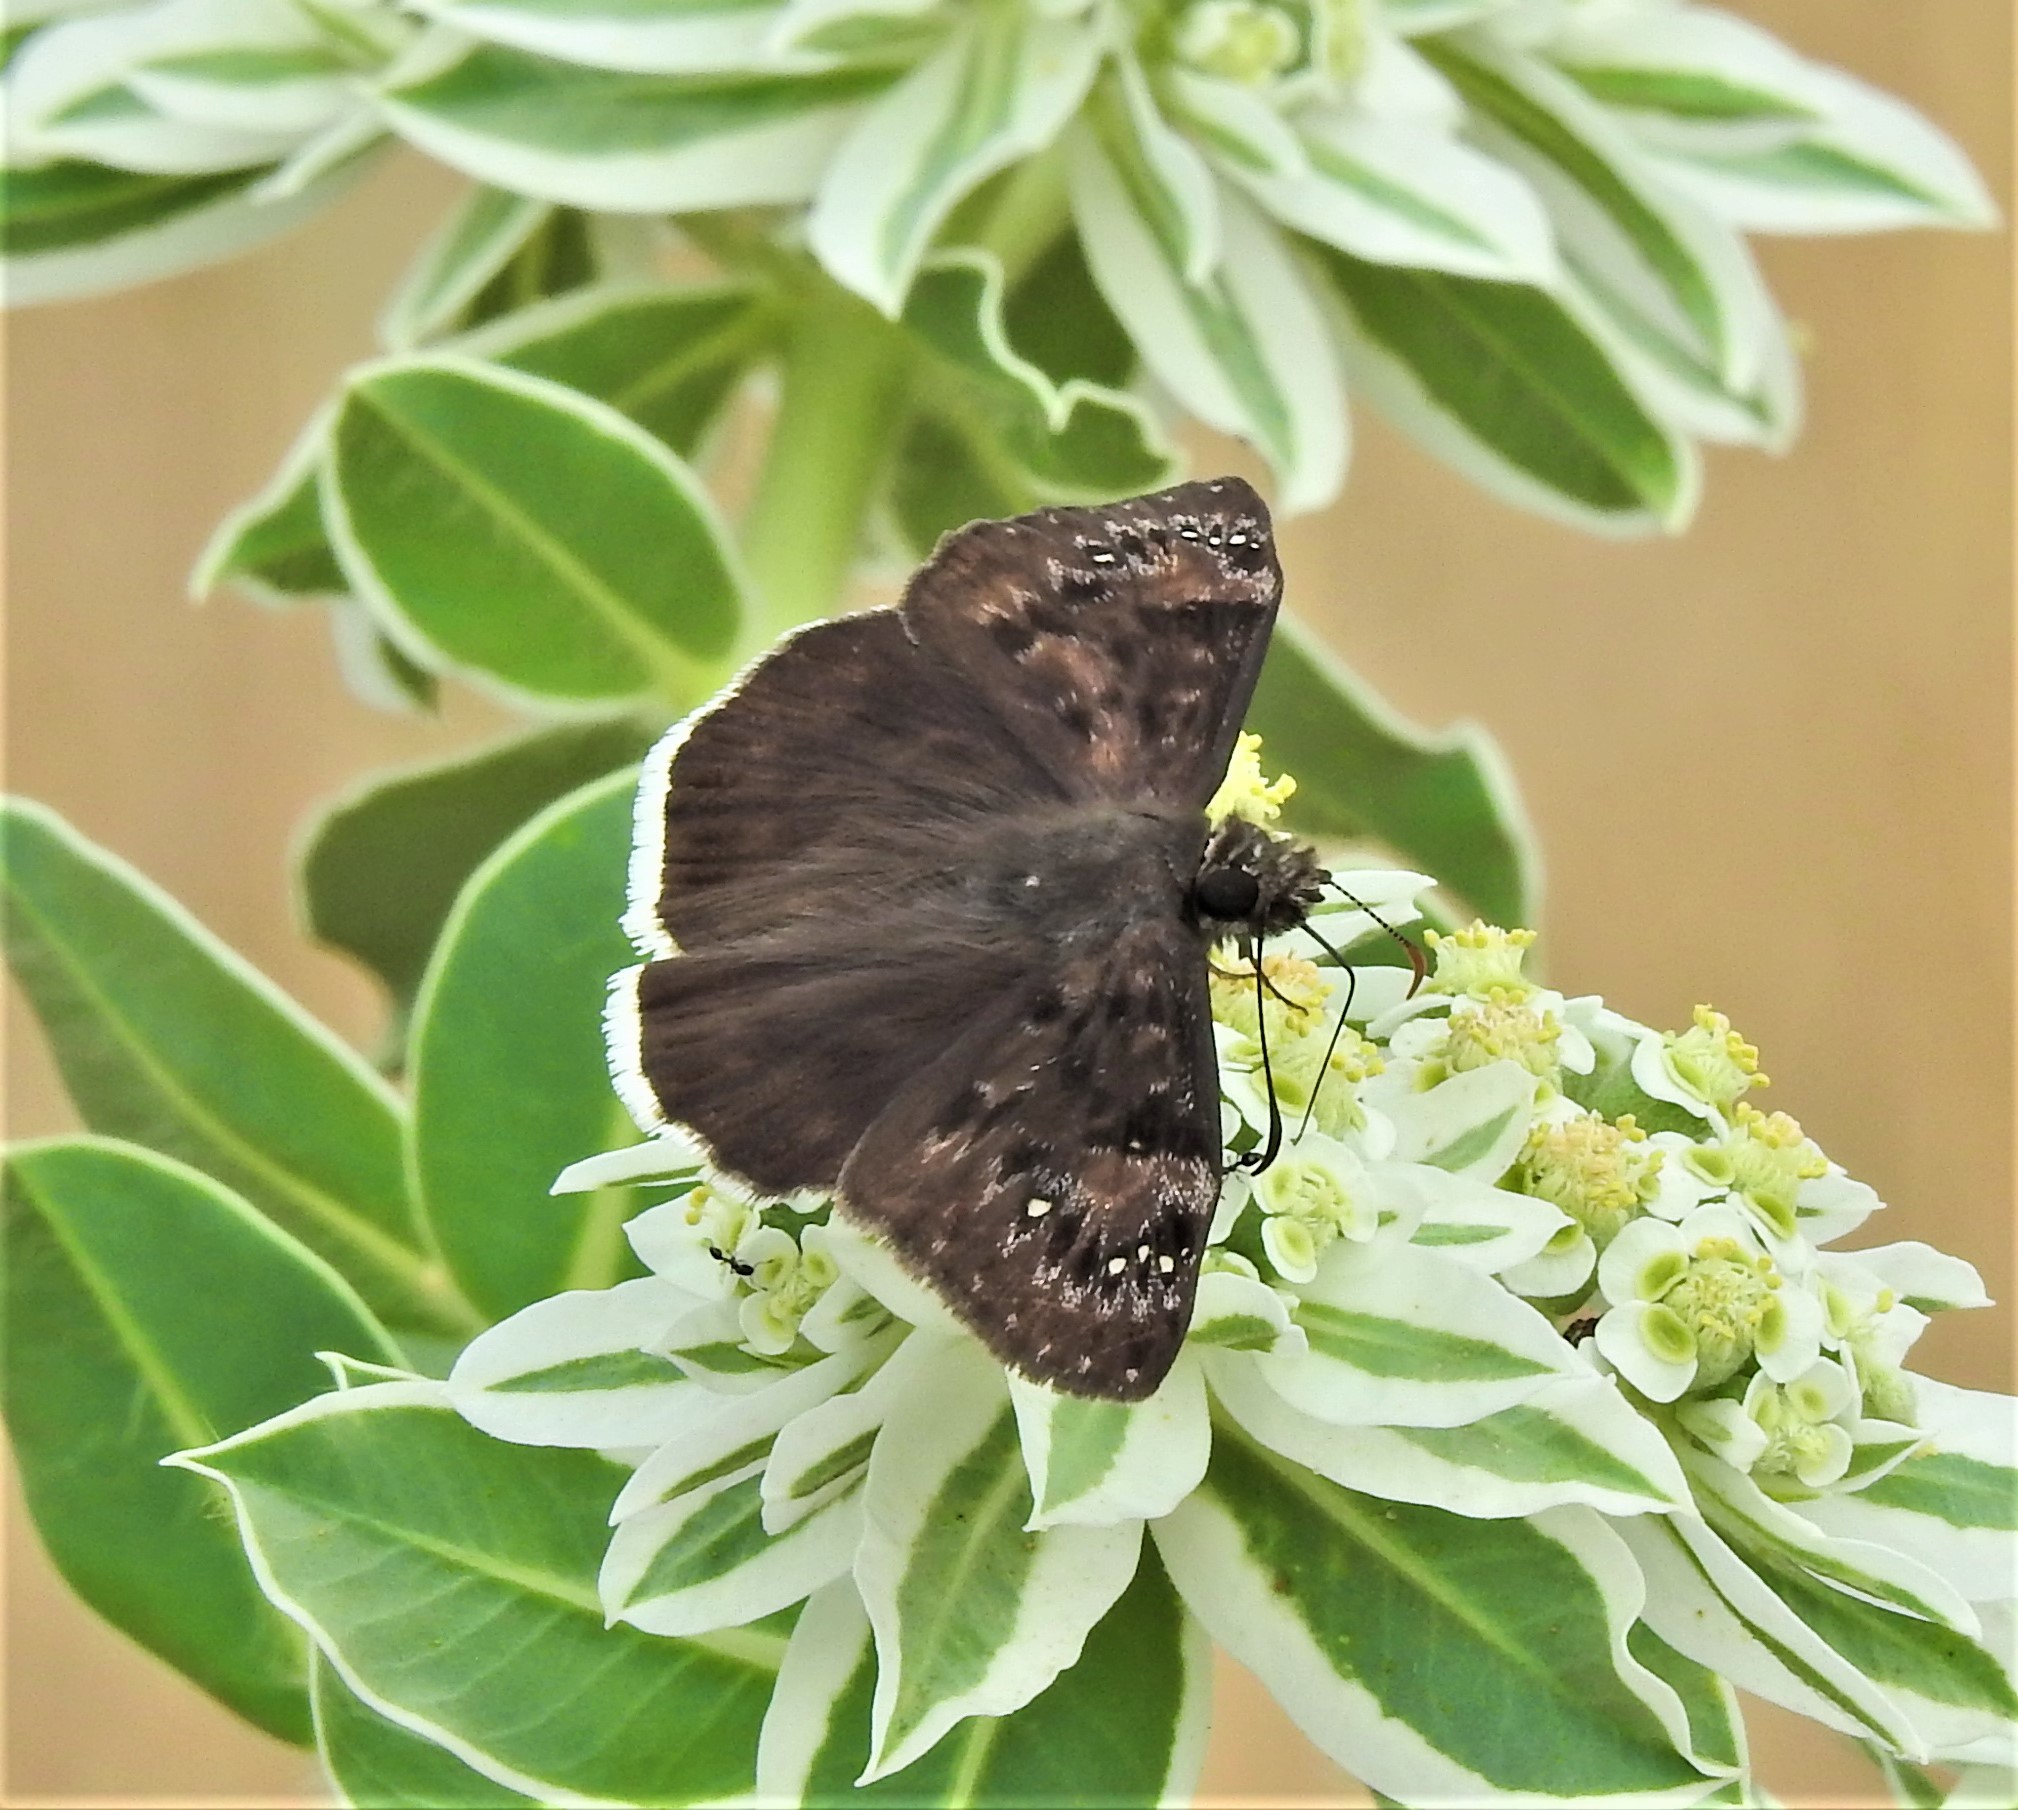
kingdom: Animalia
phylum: Arthropoda
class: Insecta
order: Lepidoptera
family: Hesperiidae
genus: Erynnis
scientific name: Erynnis funeralis
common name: Funereal duskywing
